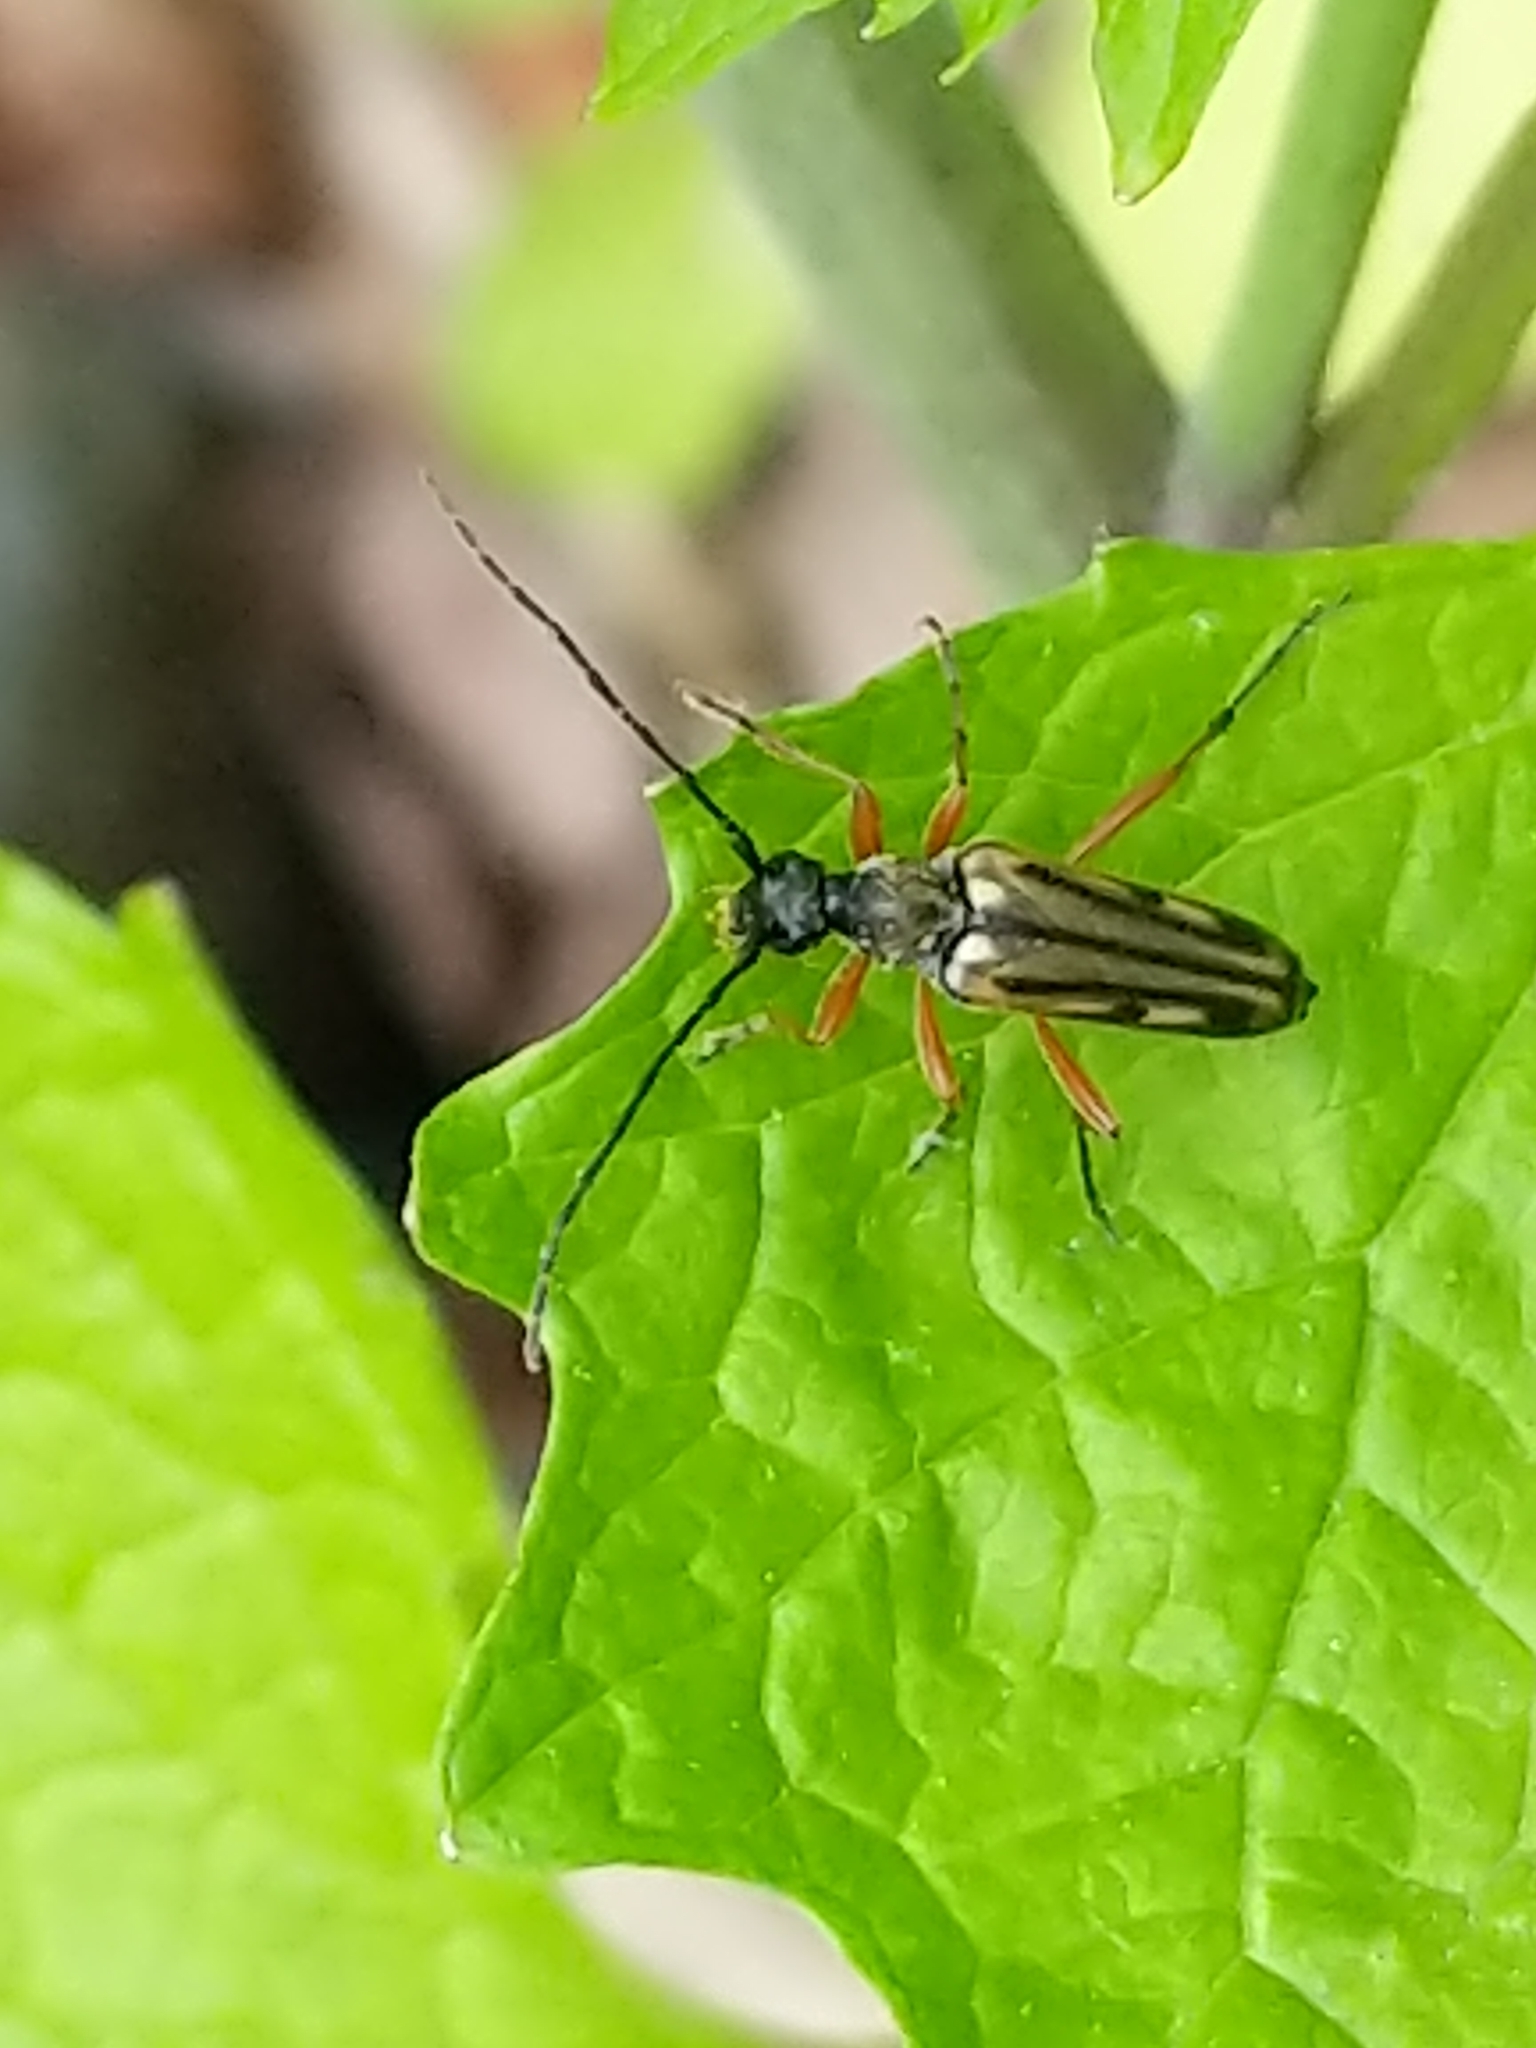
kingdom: Animalia
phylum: Arthropoda
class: Insecta
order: Coleoptera
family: Cerambycidae
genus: Analeptura
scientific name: Analeptura lineola
